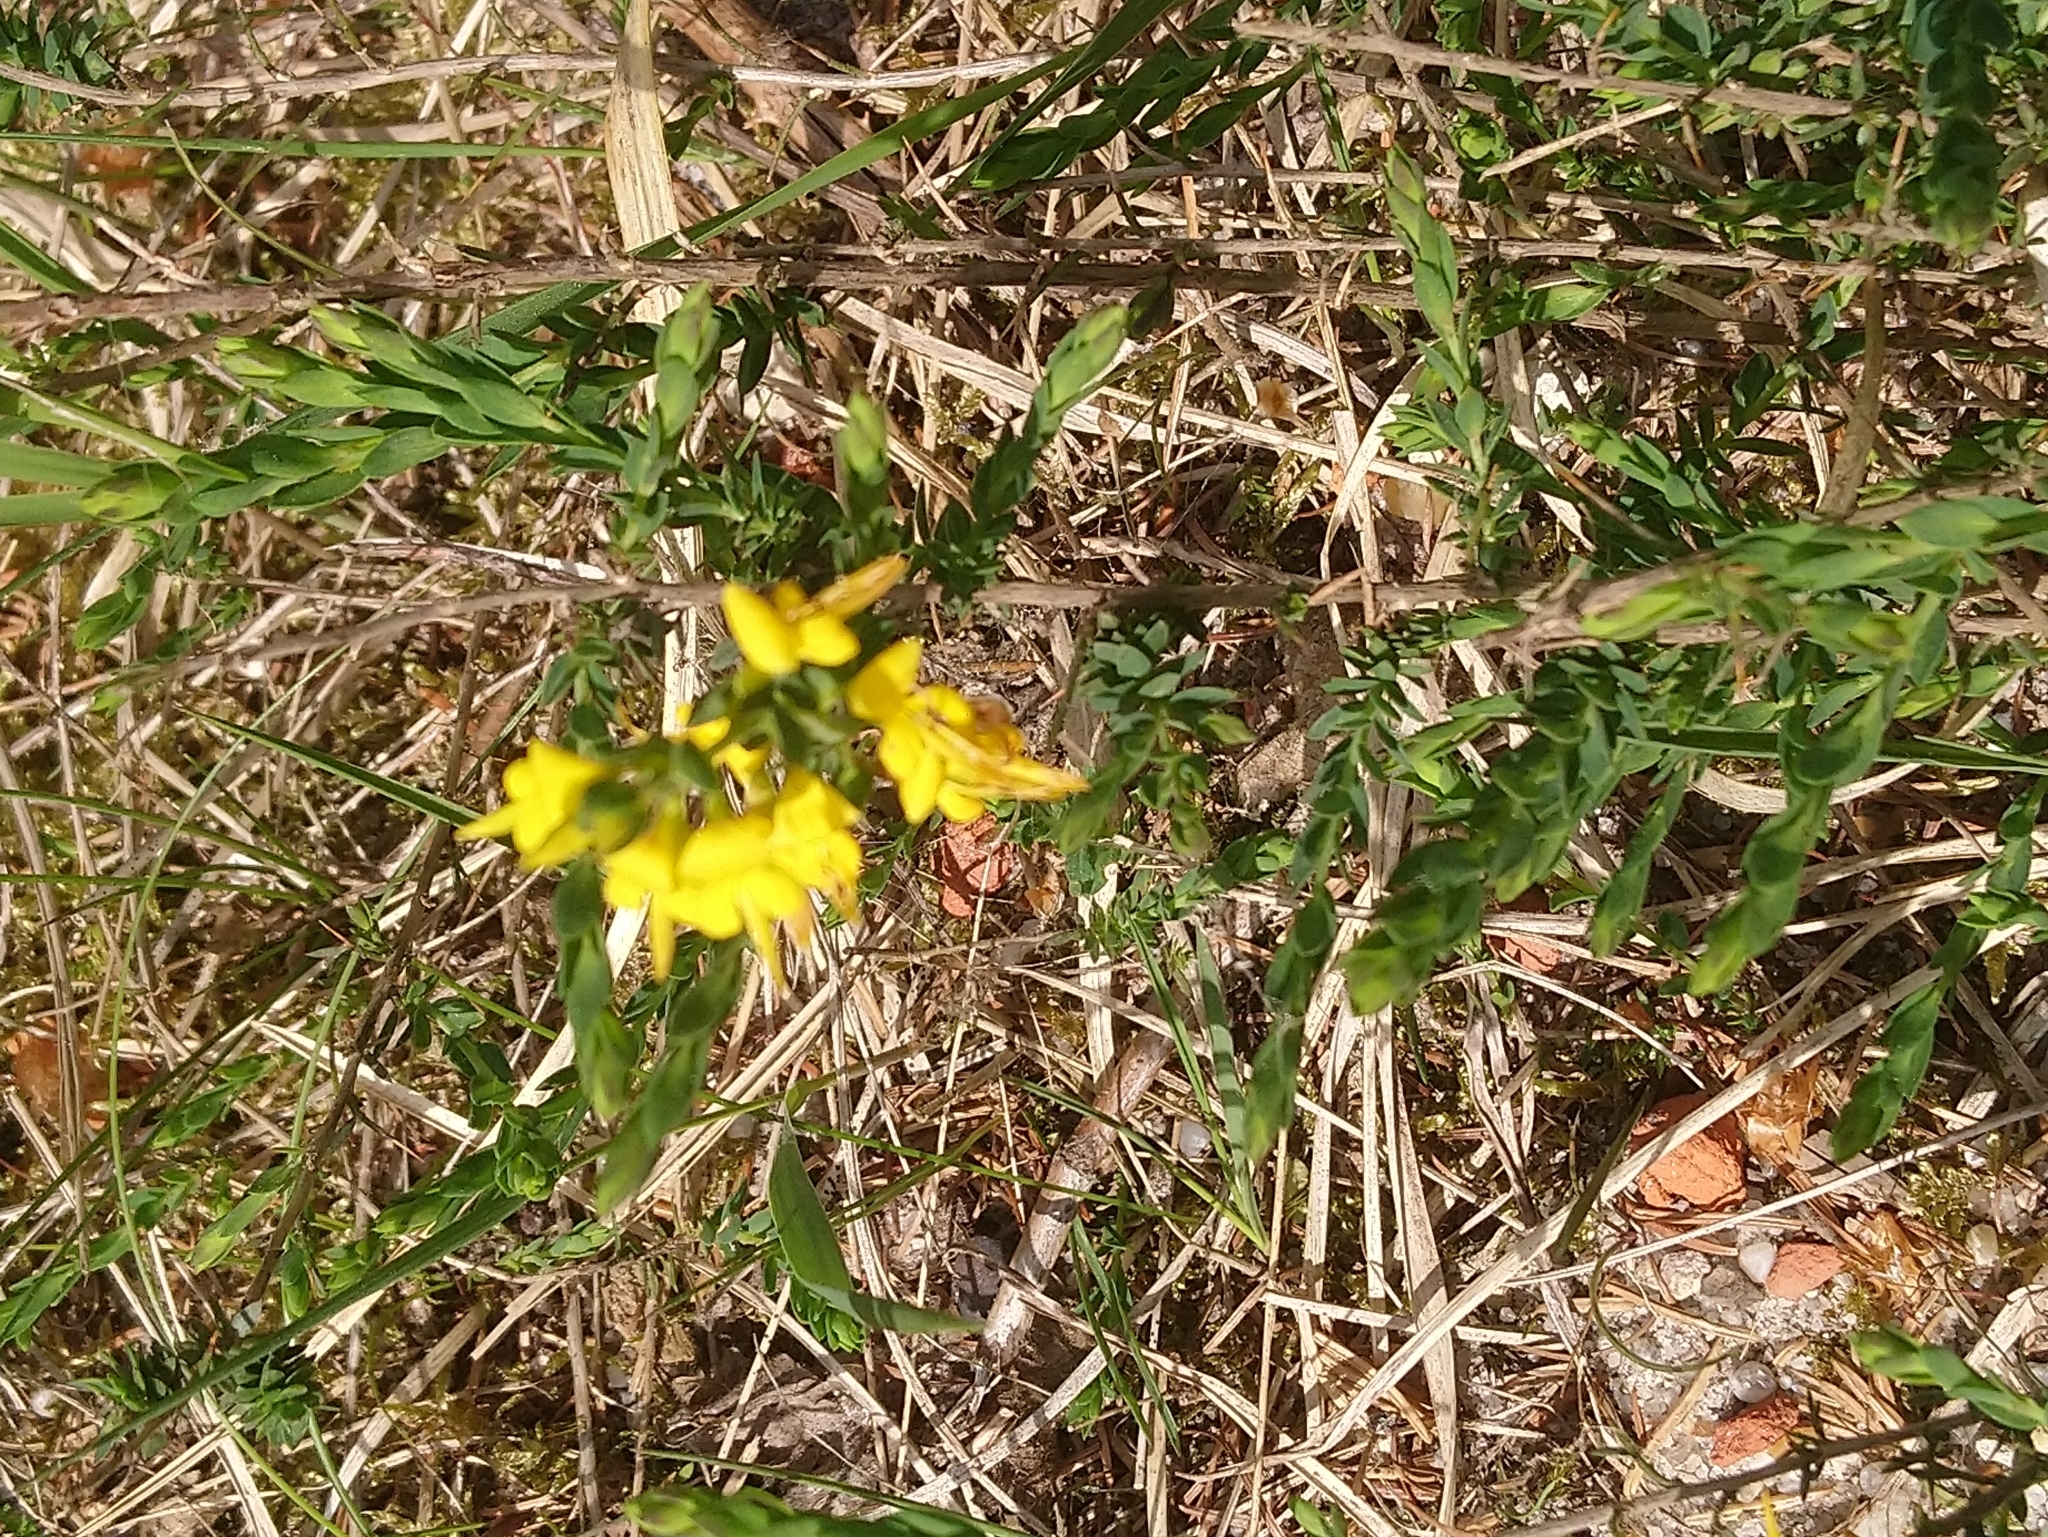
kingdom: Plantae
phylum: Tracheophyta
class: Magnoliopsida
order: Fabales
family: Fabaceae
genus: Genista
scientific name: Genista anglica
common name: Petty whin
